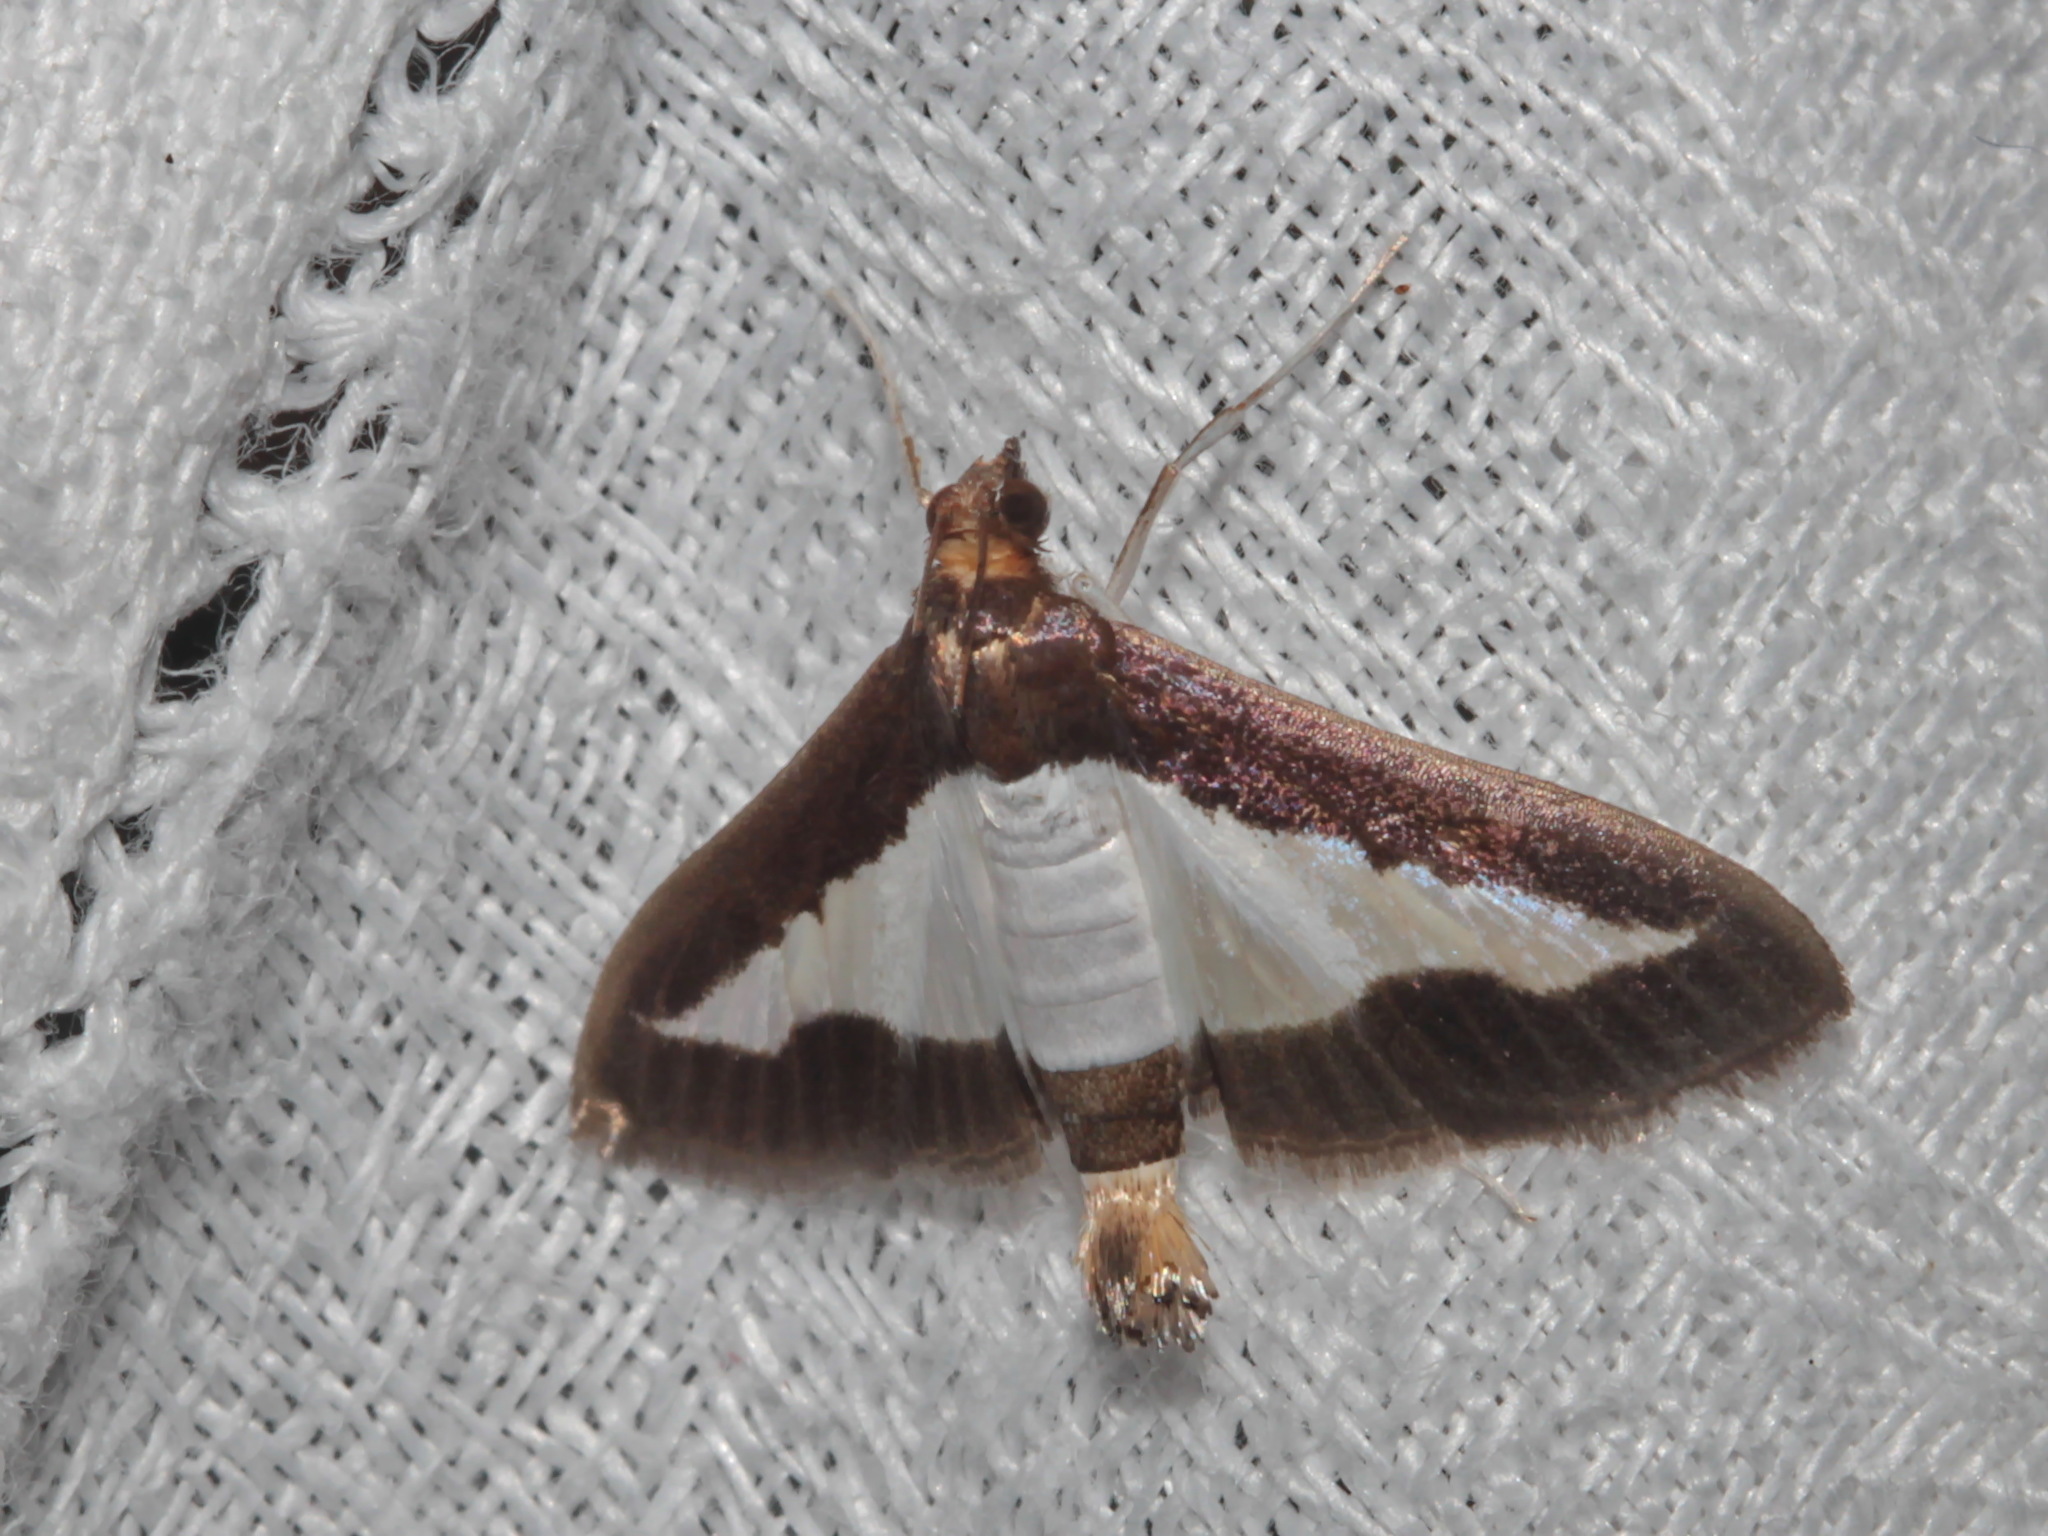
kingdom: Animalia
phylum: Arthropoda
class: Insecta
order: Lepidoptera
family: Crambidae
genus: Diaphania
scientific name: Diaphania indica
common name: Cucumber moth
